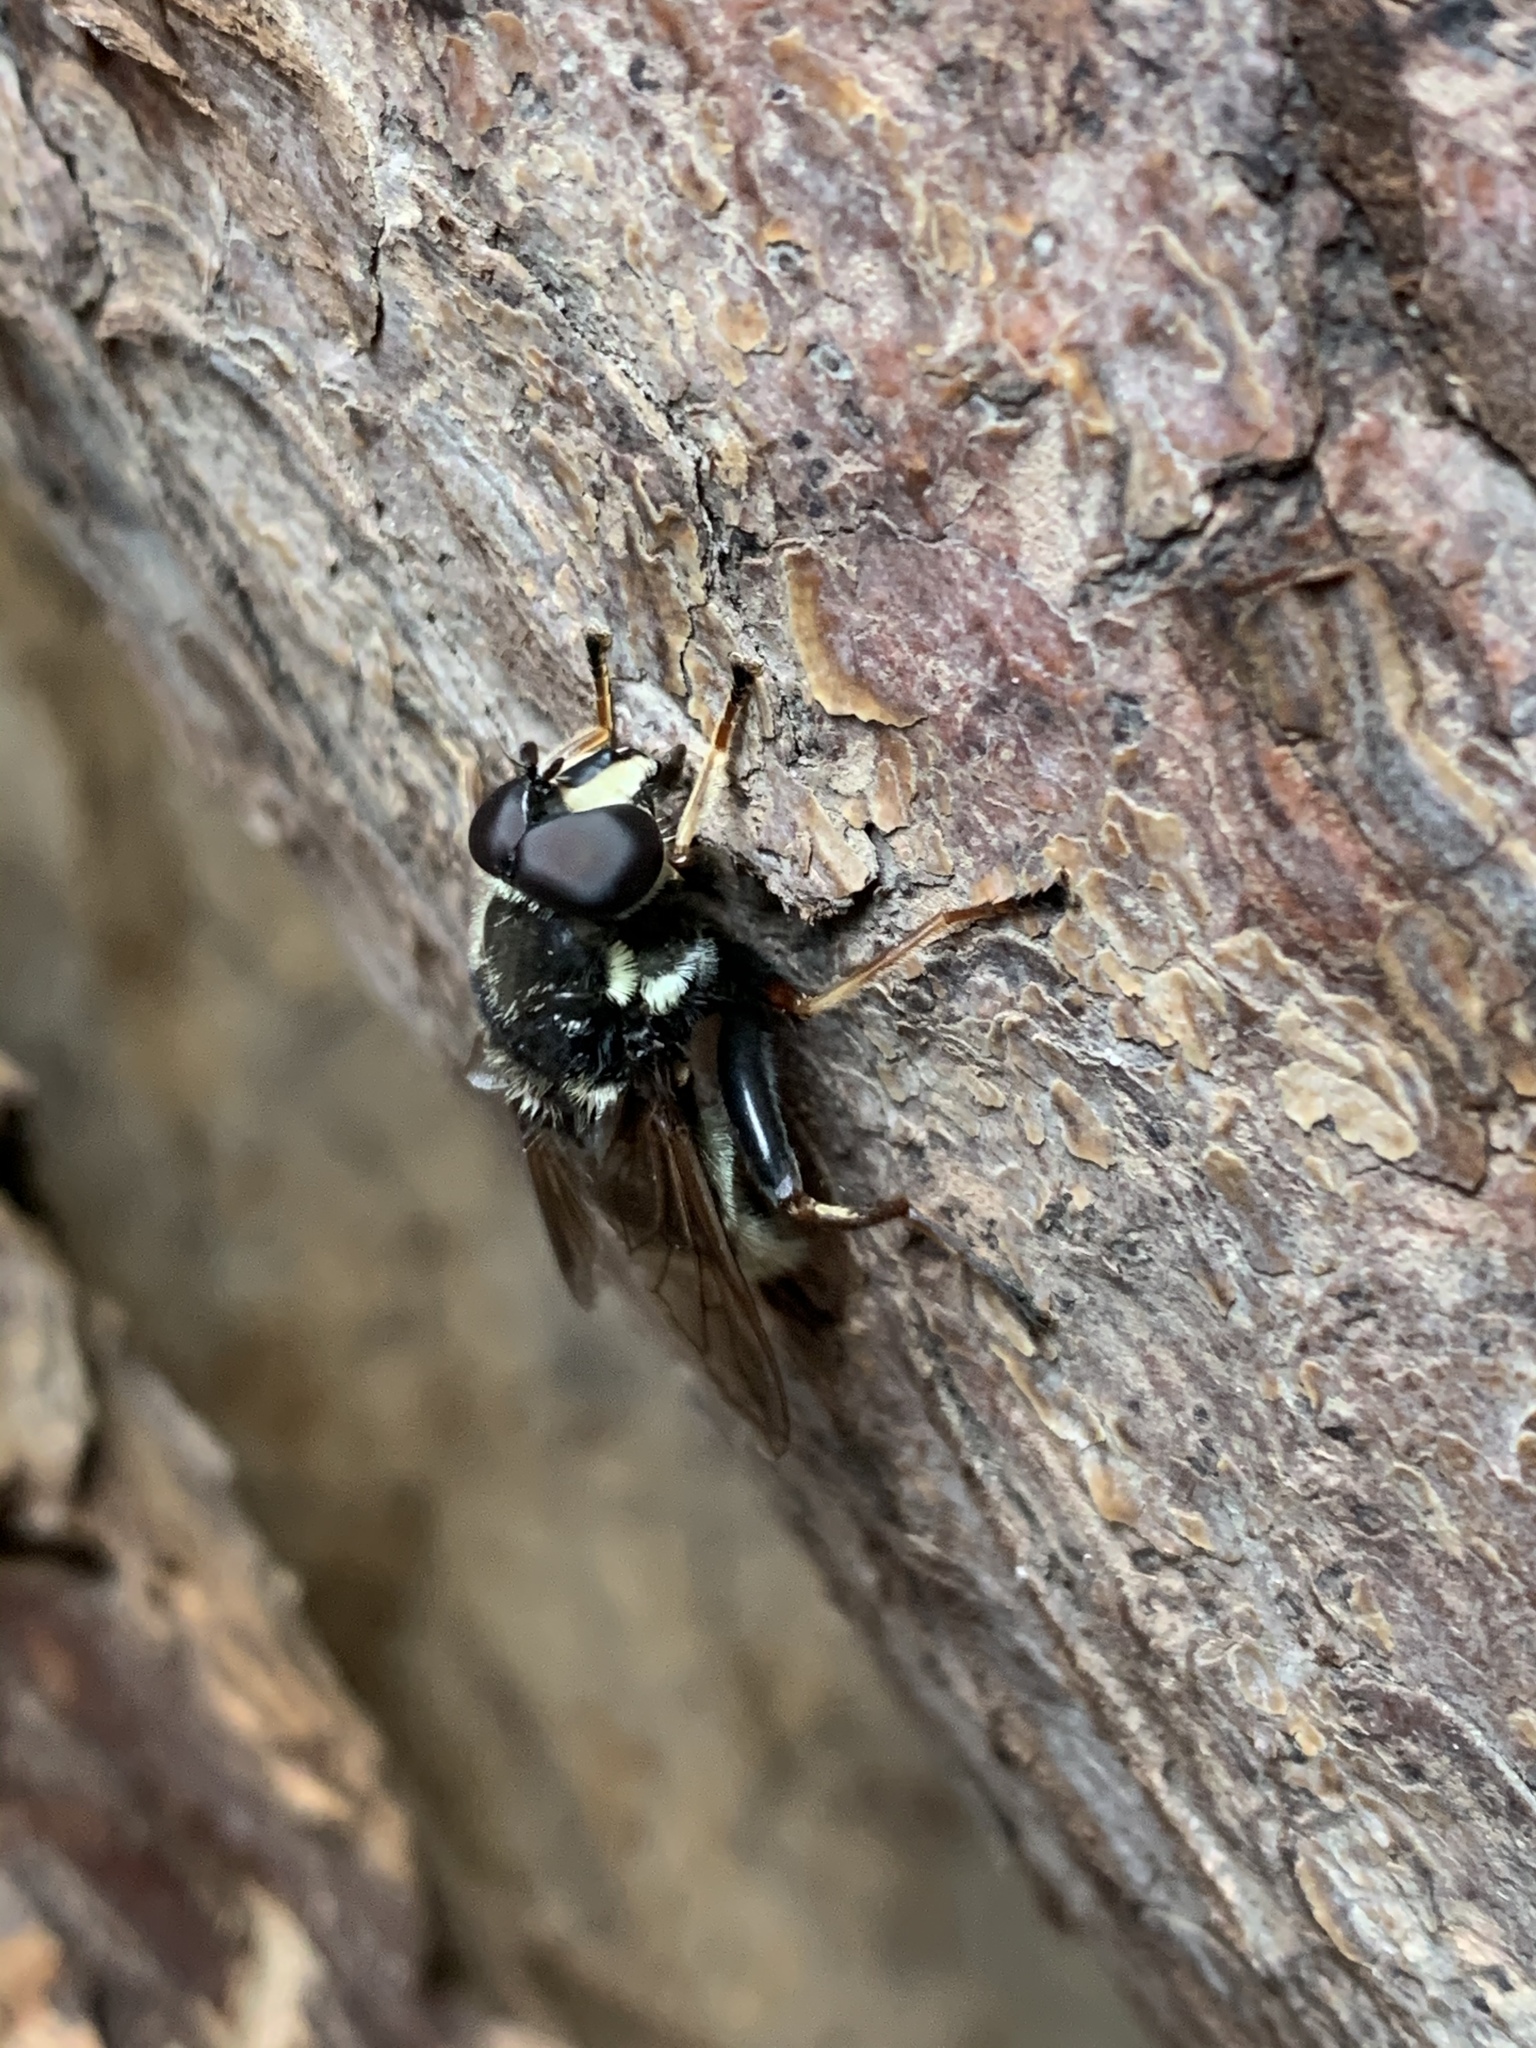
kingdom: Animalia
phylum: Arthropoda
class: Insecta
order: Diptera
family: Syrphidae
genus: Sericomyia
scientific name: Sericomyia militaris
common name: Narrow-banded pond fly
